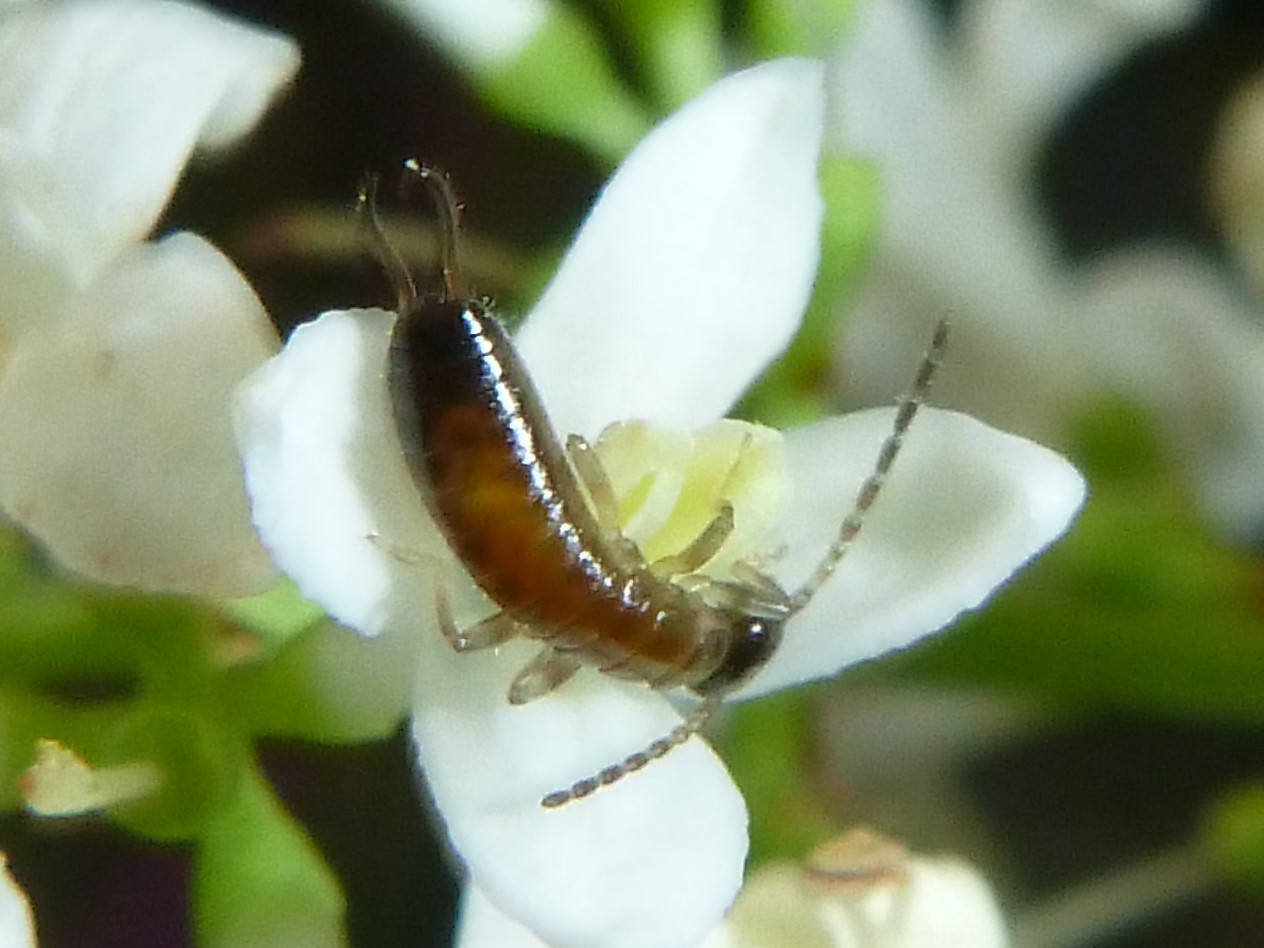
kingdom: Animalia
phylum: Arthropoda
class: Insecta
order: Dermaptera
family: Forficulidae
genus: Apterygida
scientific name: Apterygida albipennis
